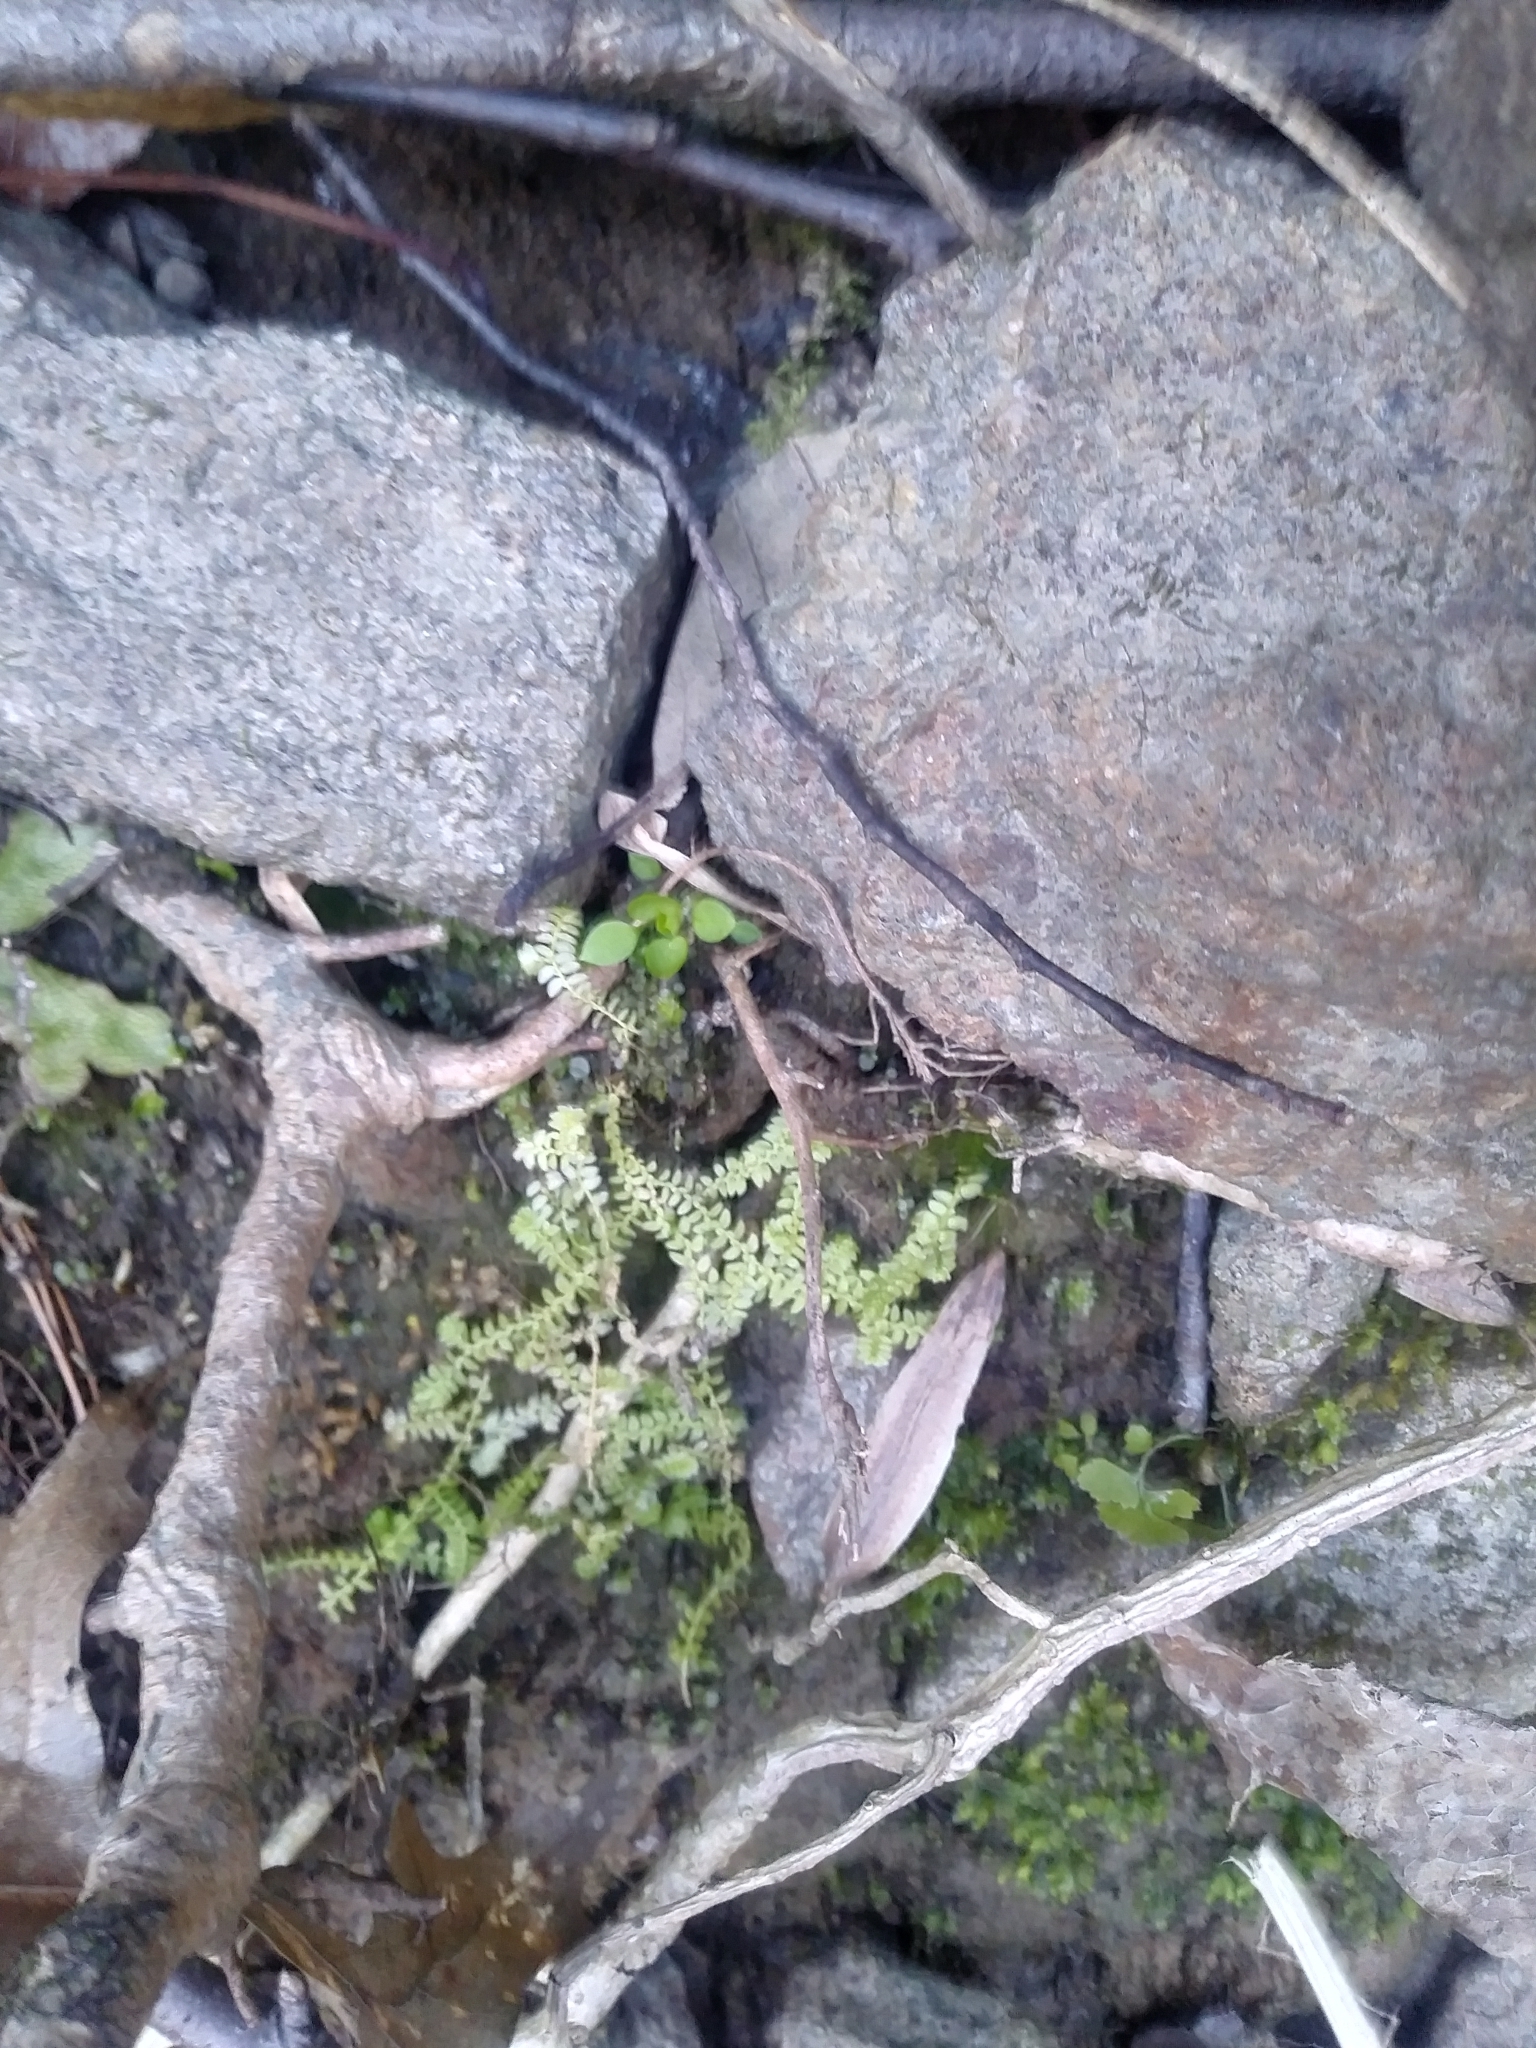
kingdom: Plantae
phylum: Tracheophyta
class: Lycopodiopsida
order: Selaginellales
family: Selaginellaceae
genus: Selaginella
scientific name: Selaginella apoda
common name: Creeping spikemoss
